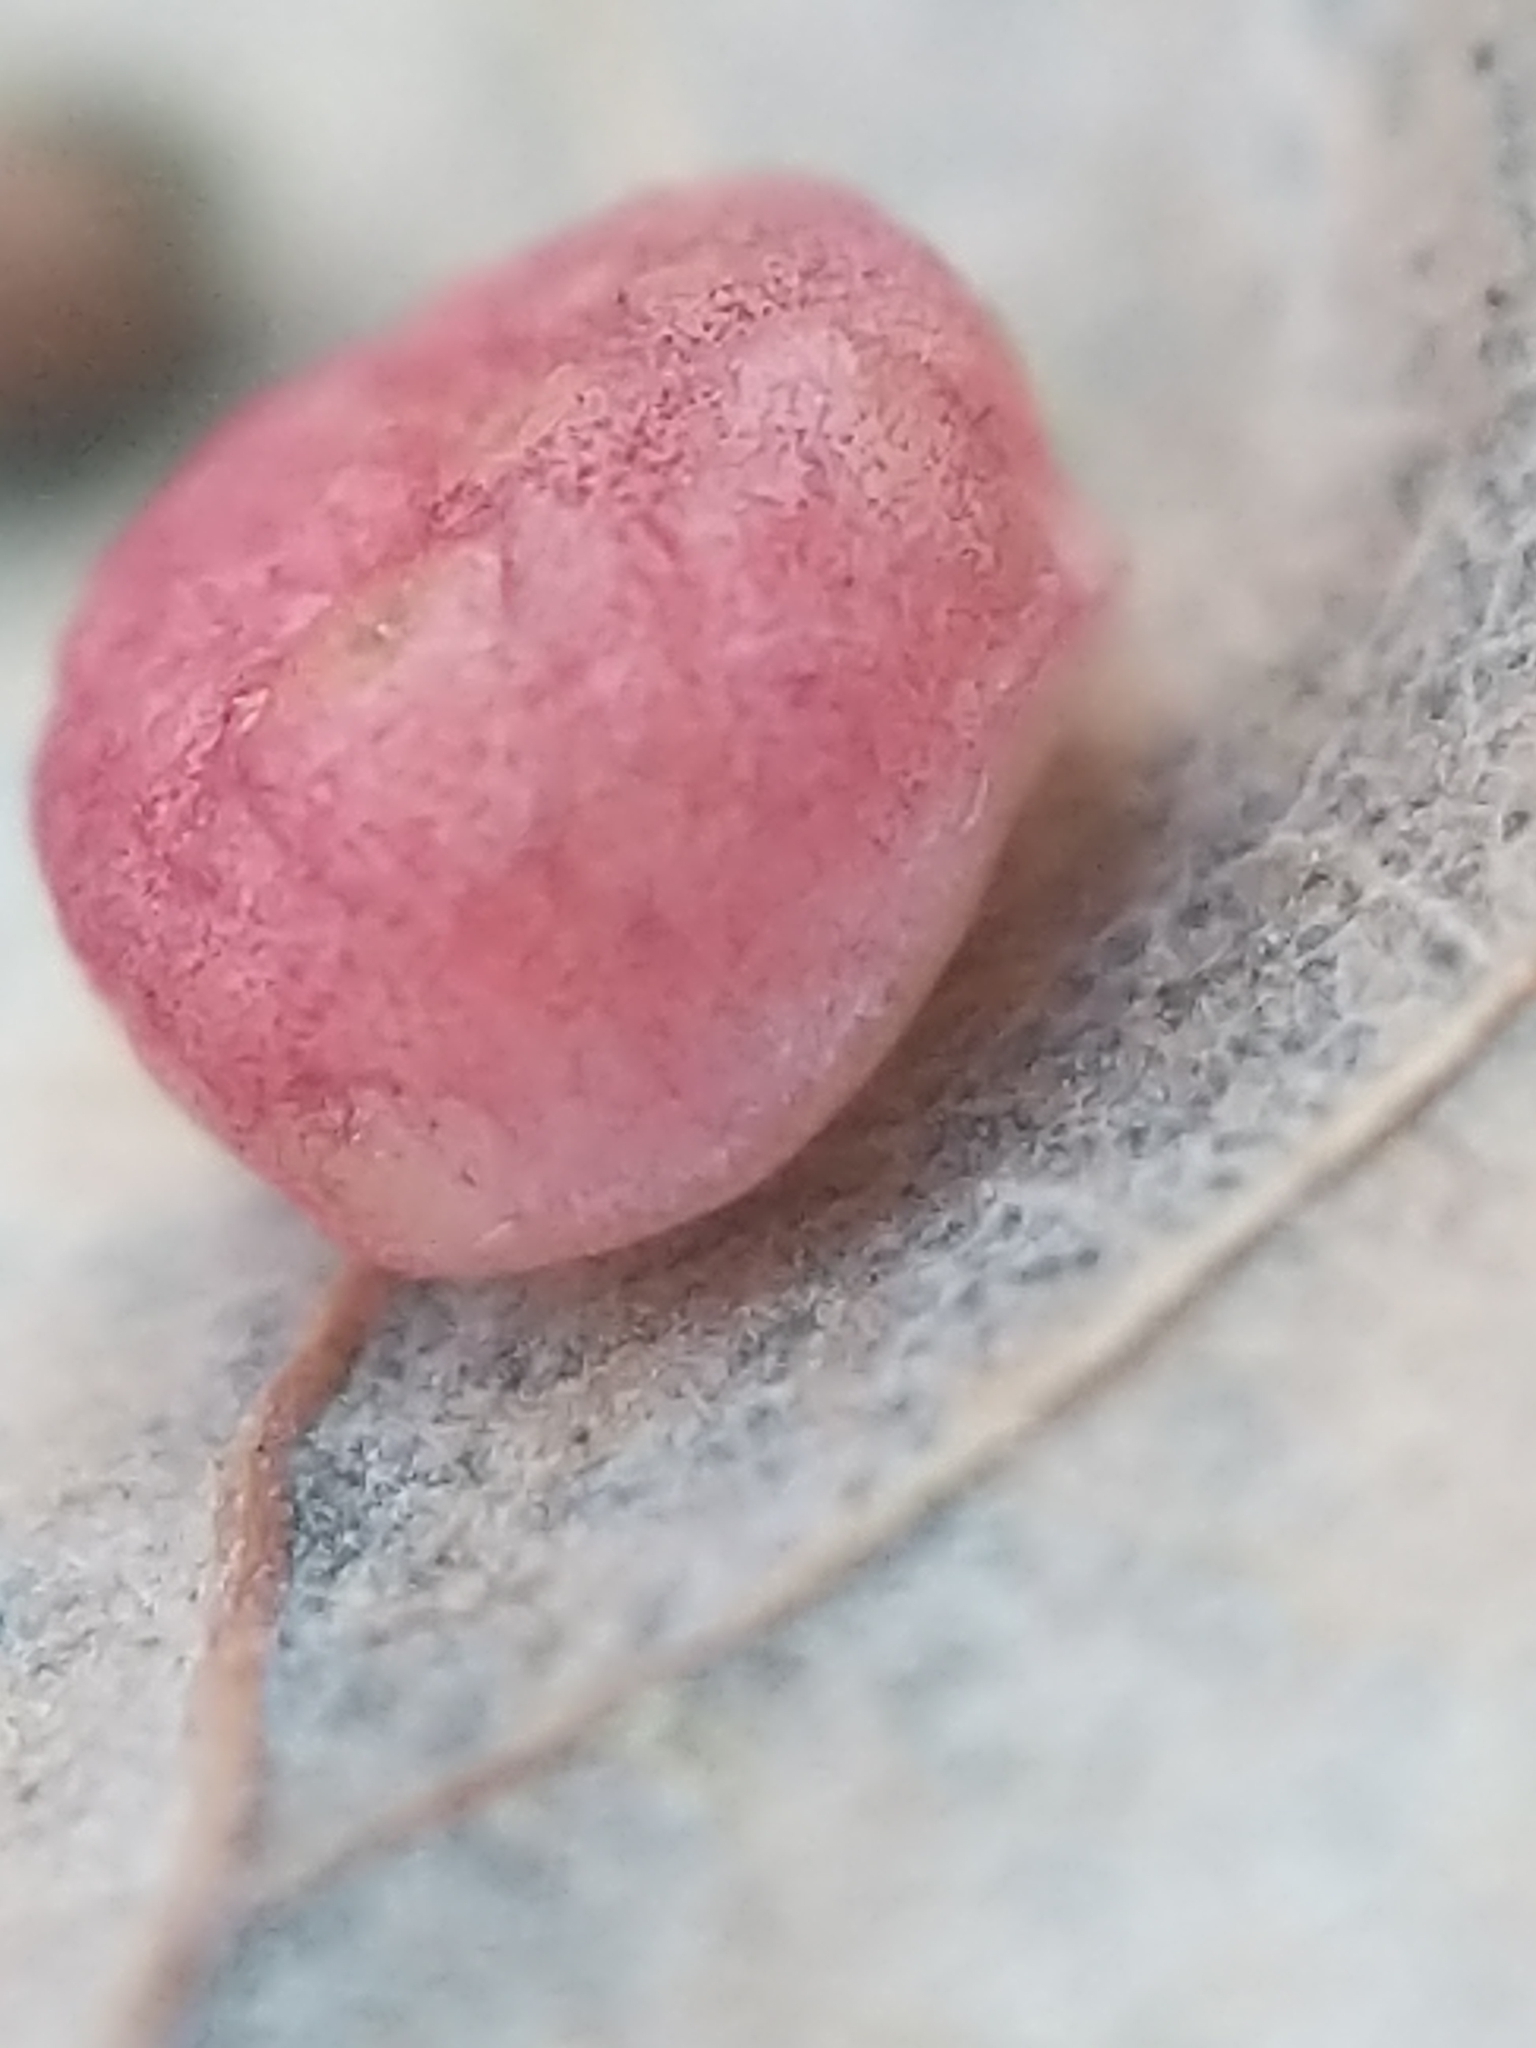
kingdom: Animalia
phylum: Arthropoda
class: Insecta
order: Hymenoptera
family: Cynipidae
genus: Phylloteras
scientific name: Phylloteras
